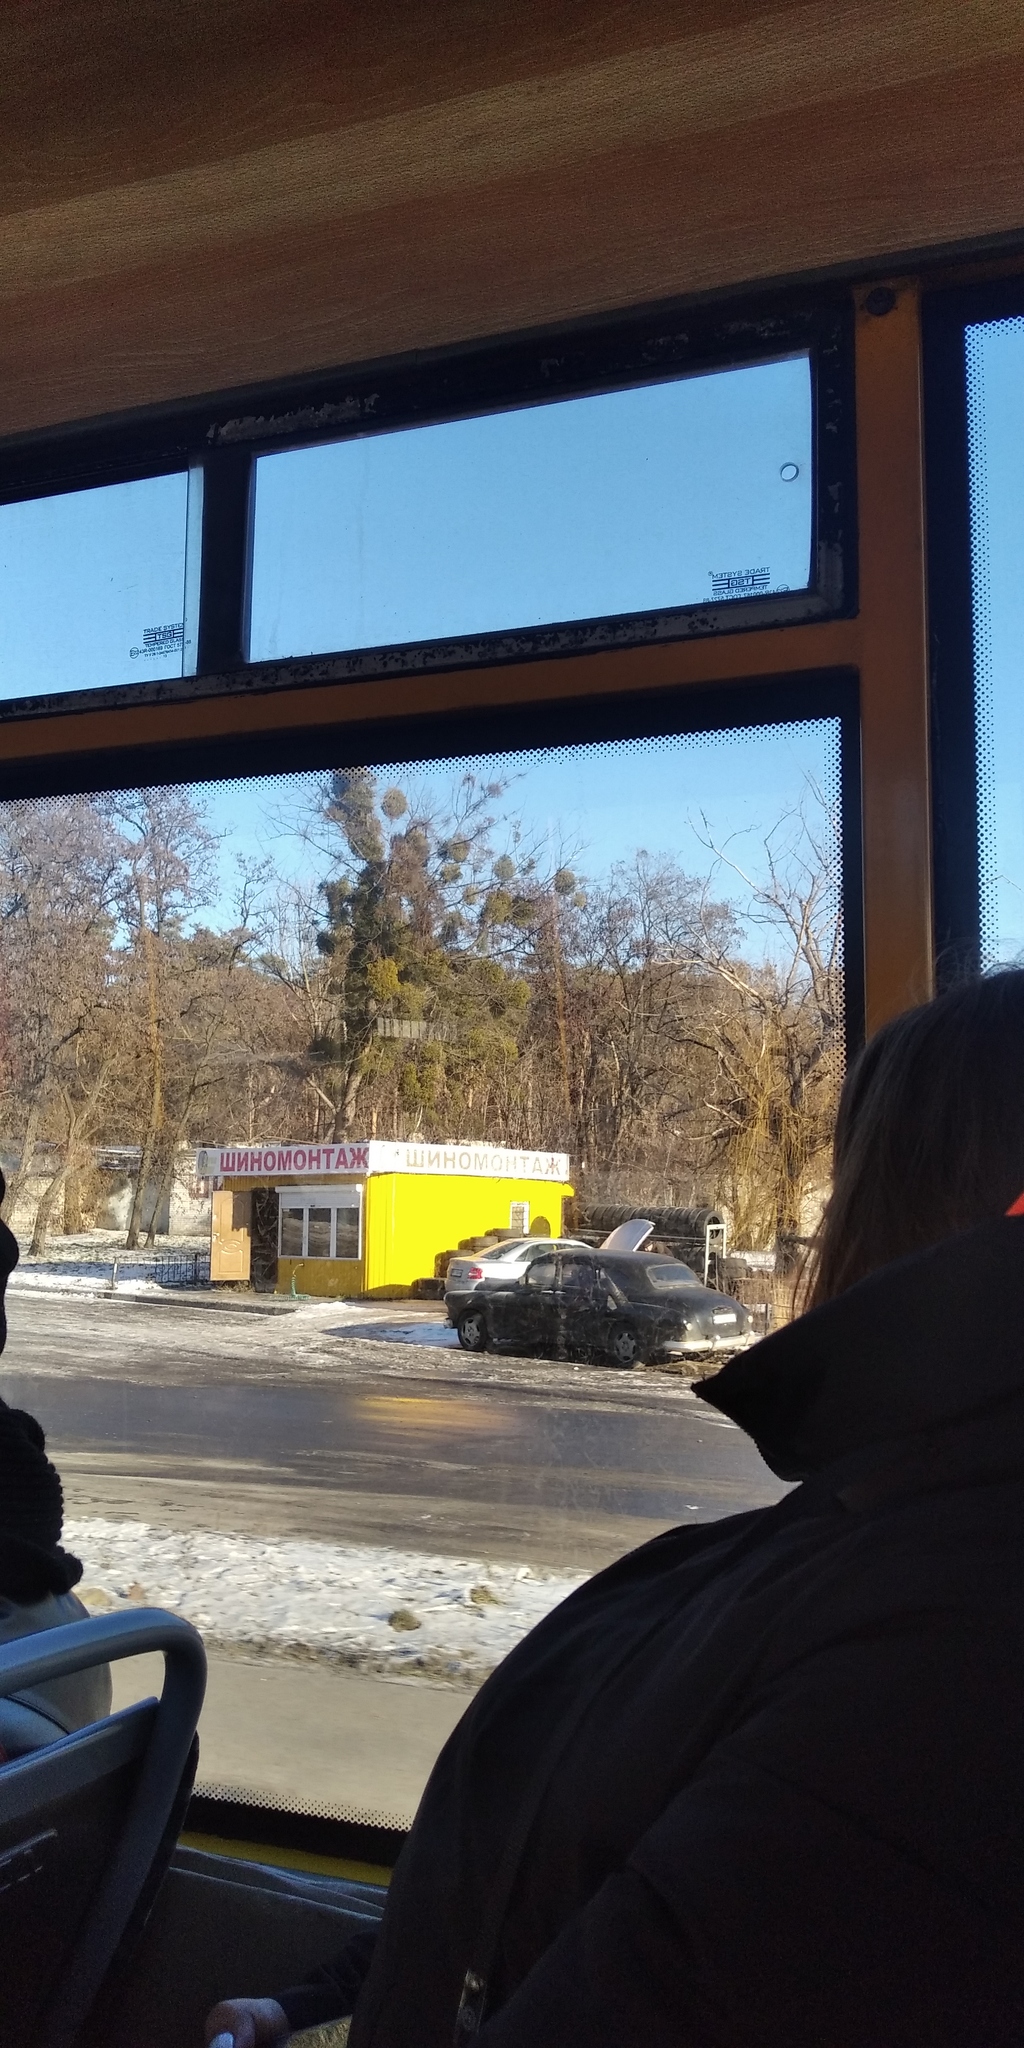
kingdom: Plantae
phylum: Tracheophyta
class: Magnoliopsida
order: Santalales
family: Viscaceae
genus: Viscum
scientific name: Viscum album
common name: Mistletoe
